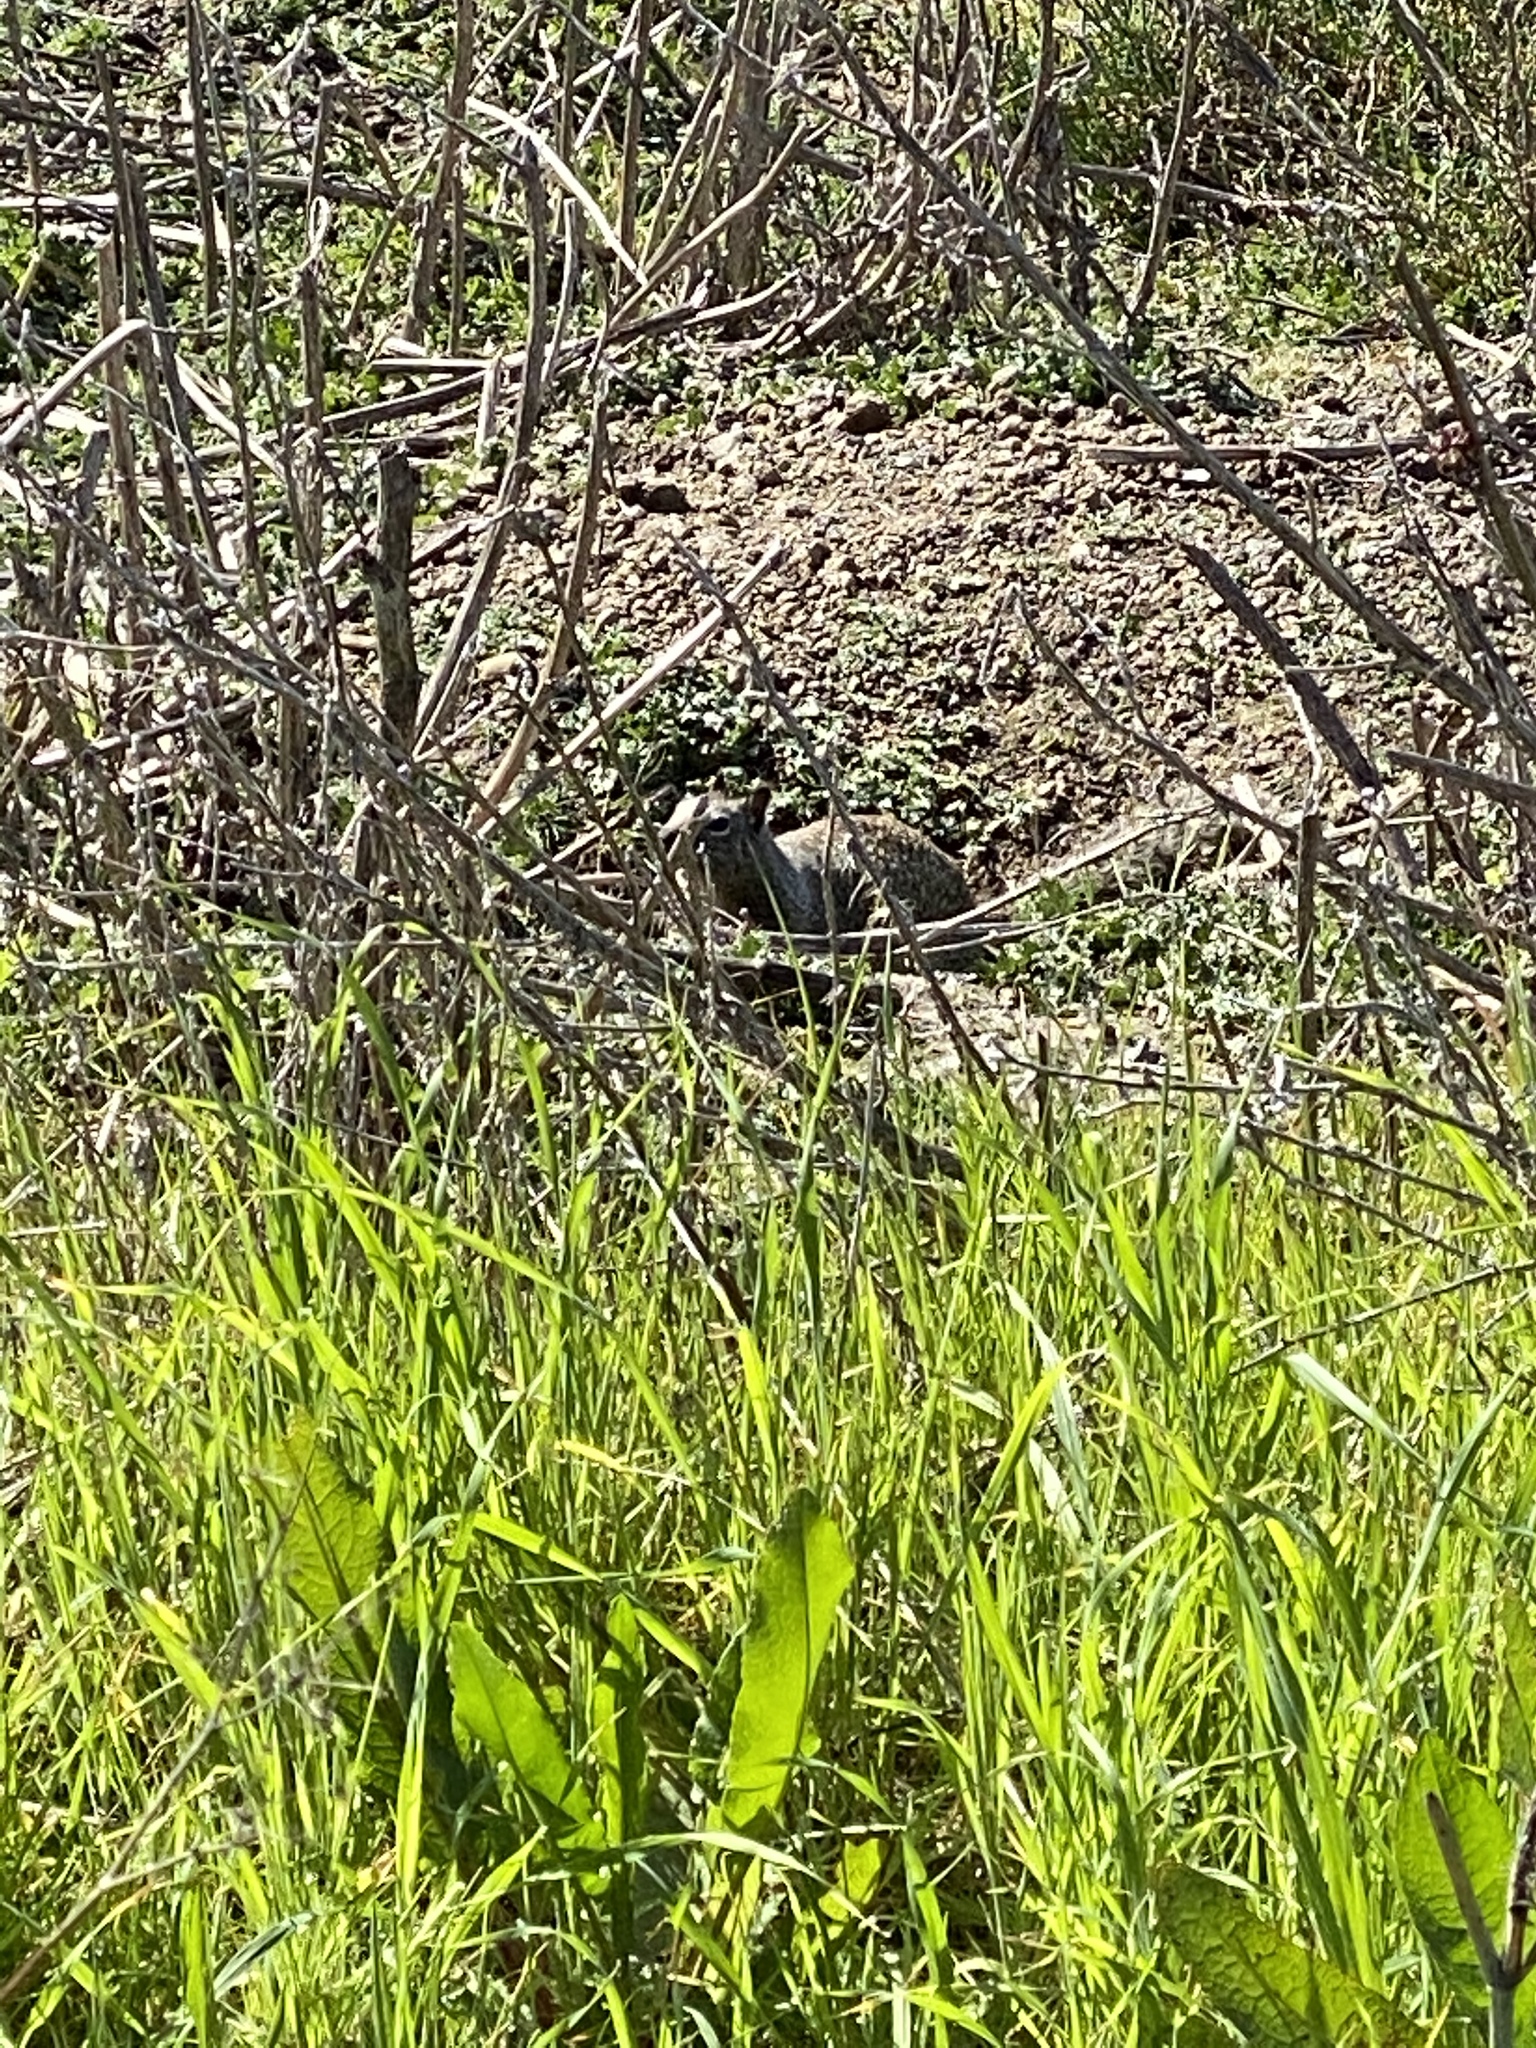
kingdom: Animalia
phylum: Chordata
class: Mammalia
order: Rodentia
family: Sciuridae
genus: Otospermophilus
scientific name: Otospermophilus beecheyi
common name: California ground squirrel
